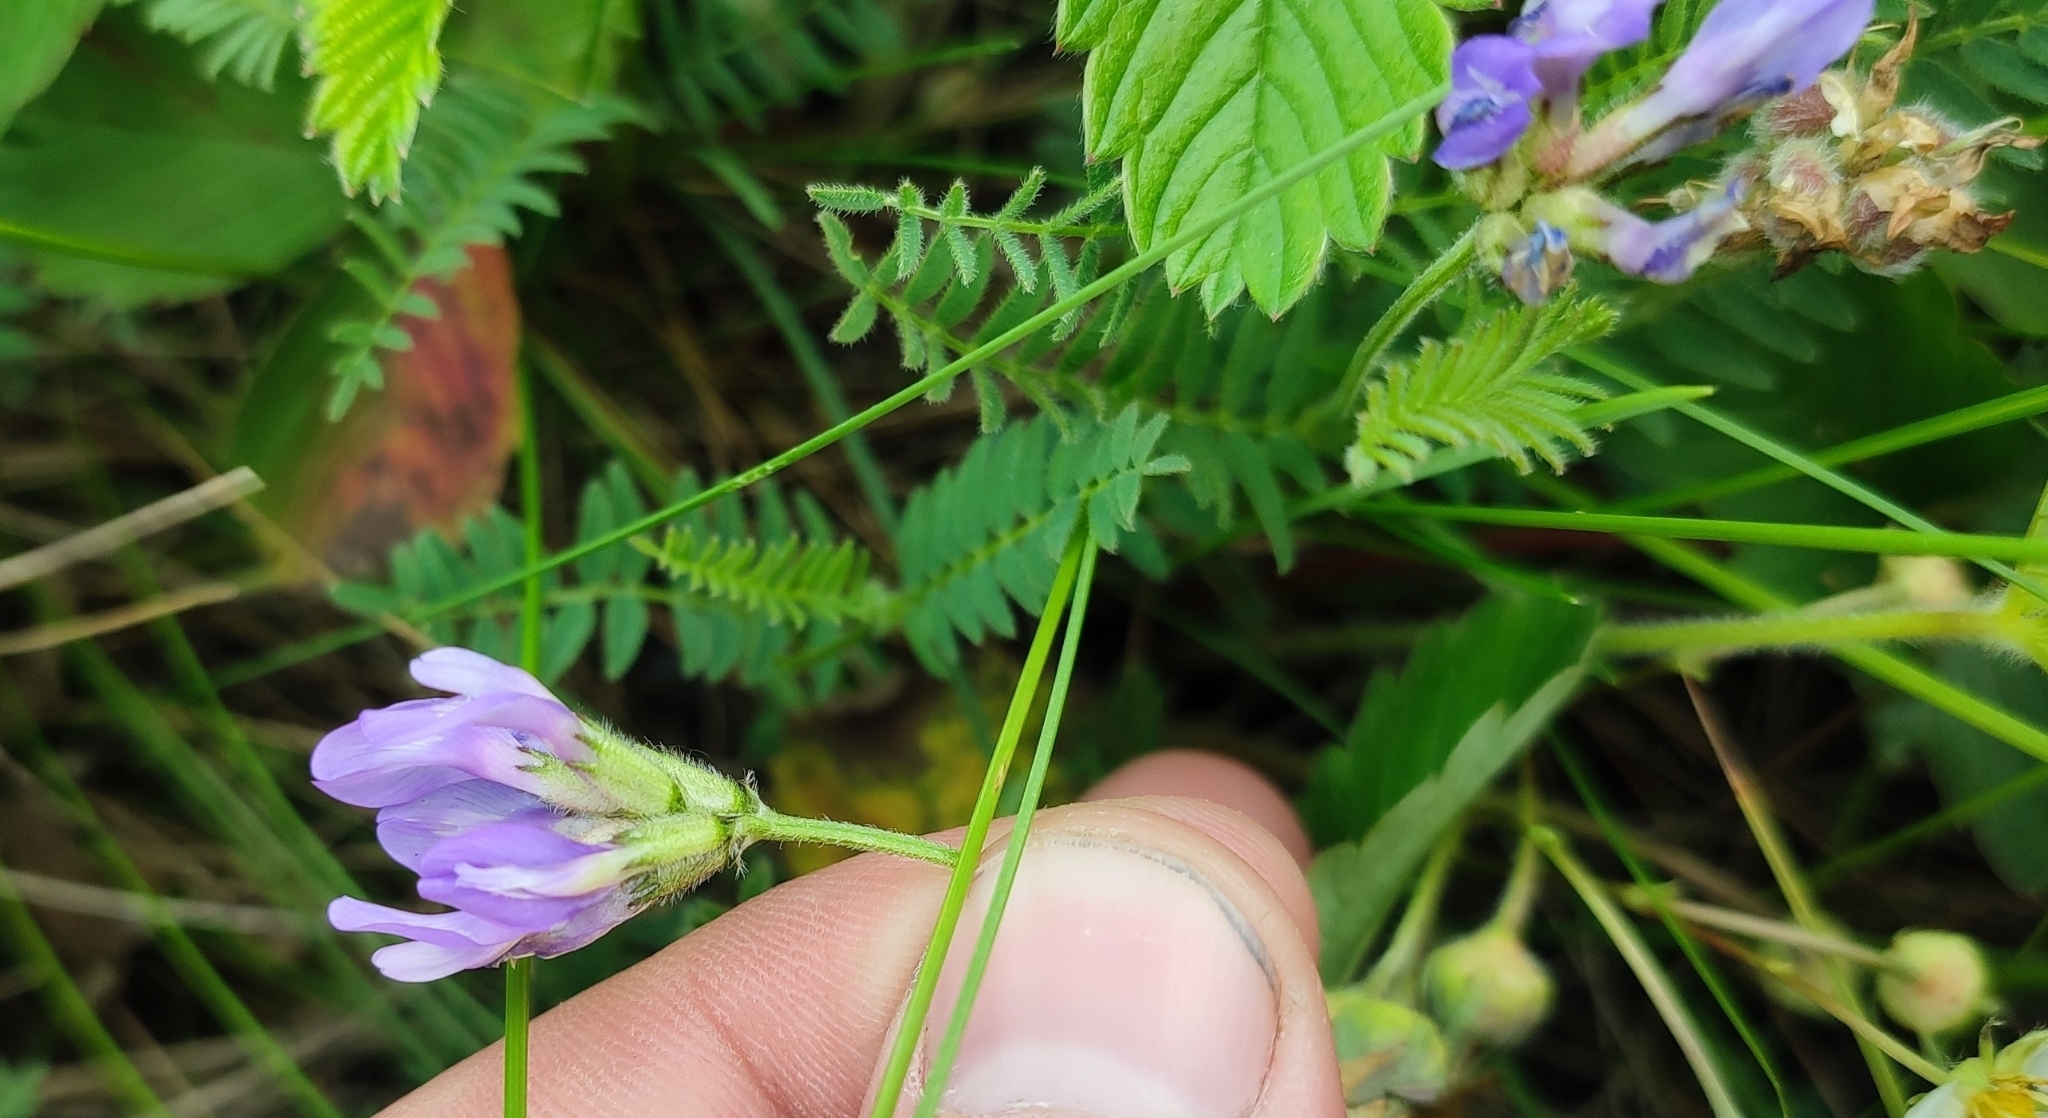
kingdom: Plantae
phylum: Tracheophyta
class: Magnoliopsida
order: Fabales
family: Fabaceae
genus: Astragalus
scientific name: Astragalus danicus
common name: Purple milk-vetch
